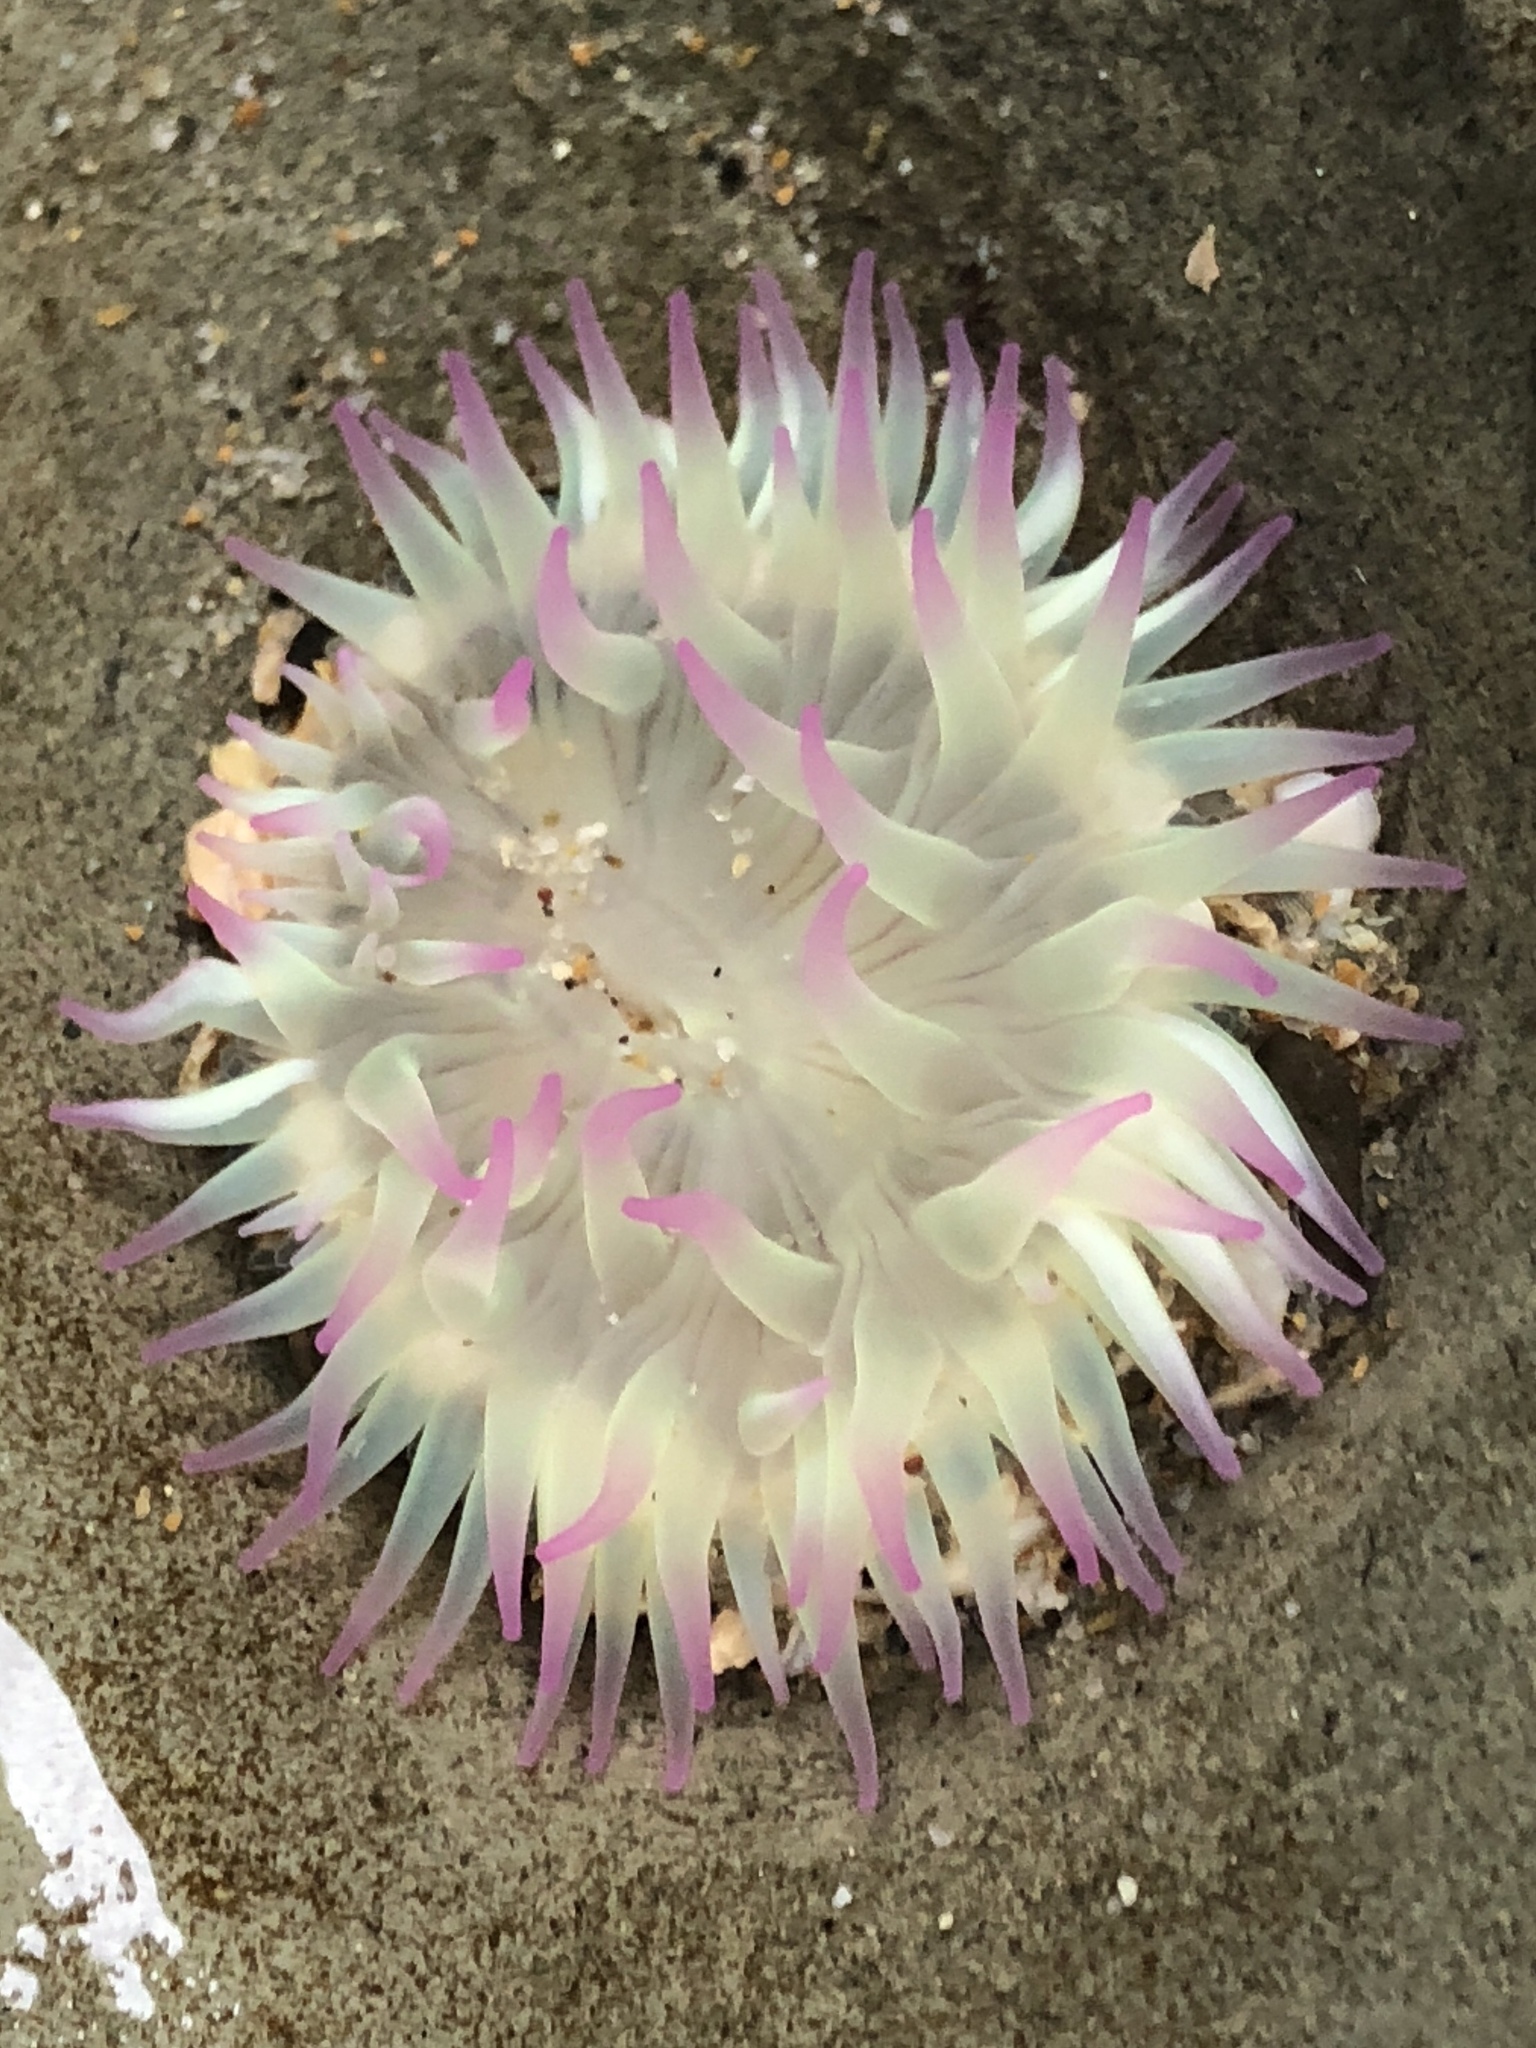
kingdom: Animalia
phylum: Cnidaria
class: Anthozoa
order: Actiniaria
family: Actiniidae
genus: Anthopleura
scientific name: Anthopleura elegantissima
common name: Clonal anemone
